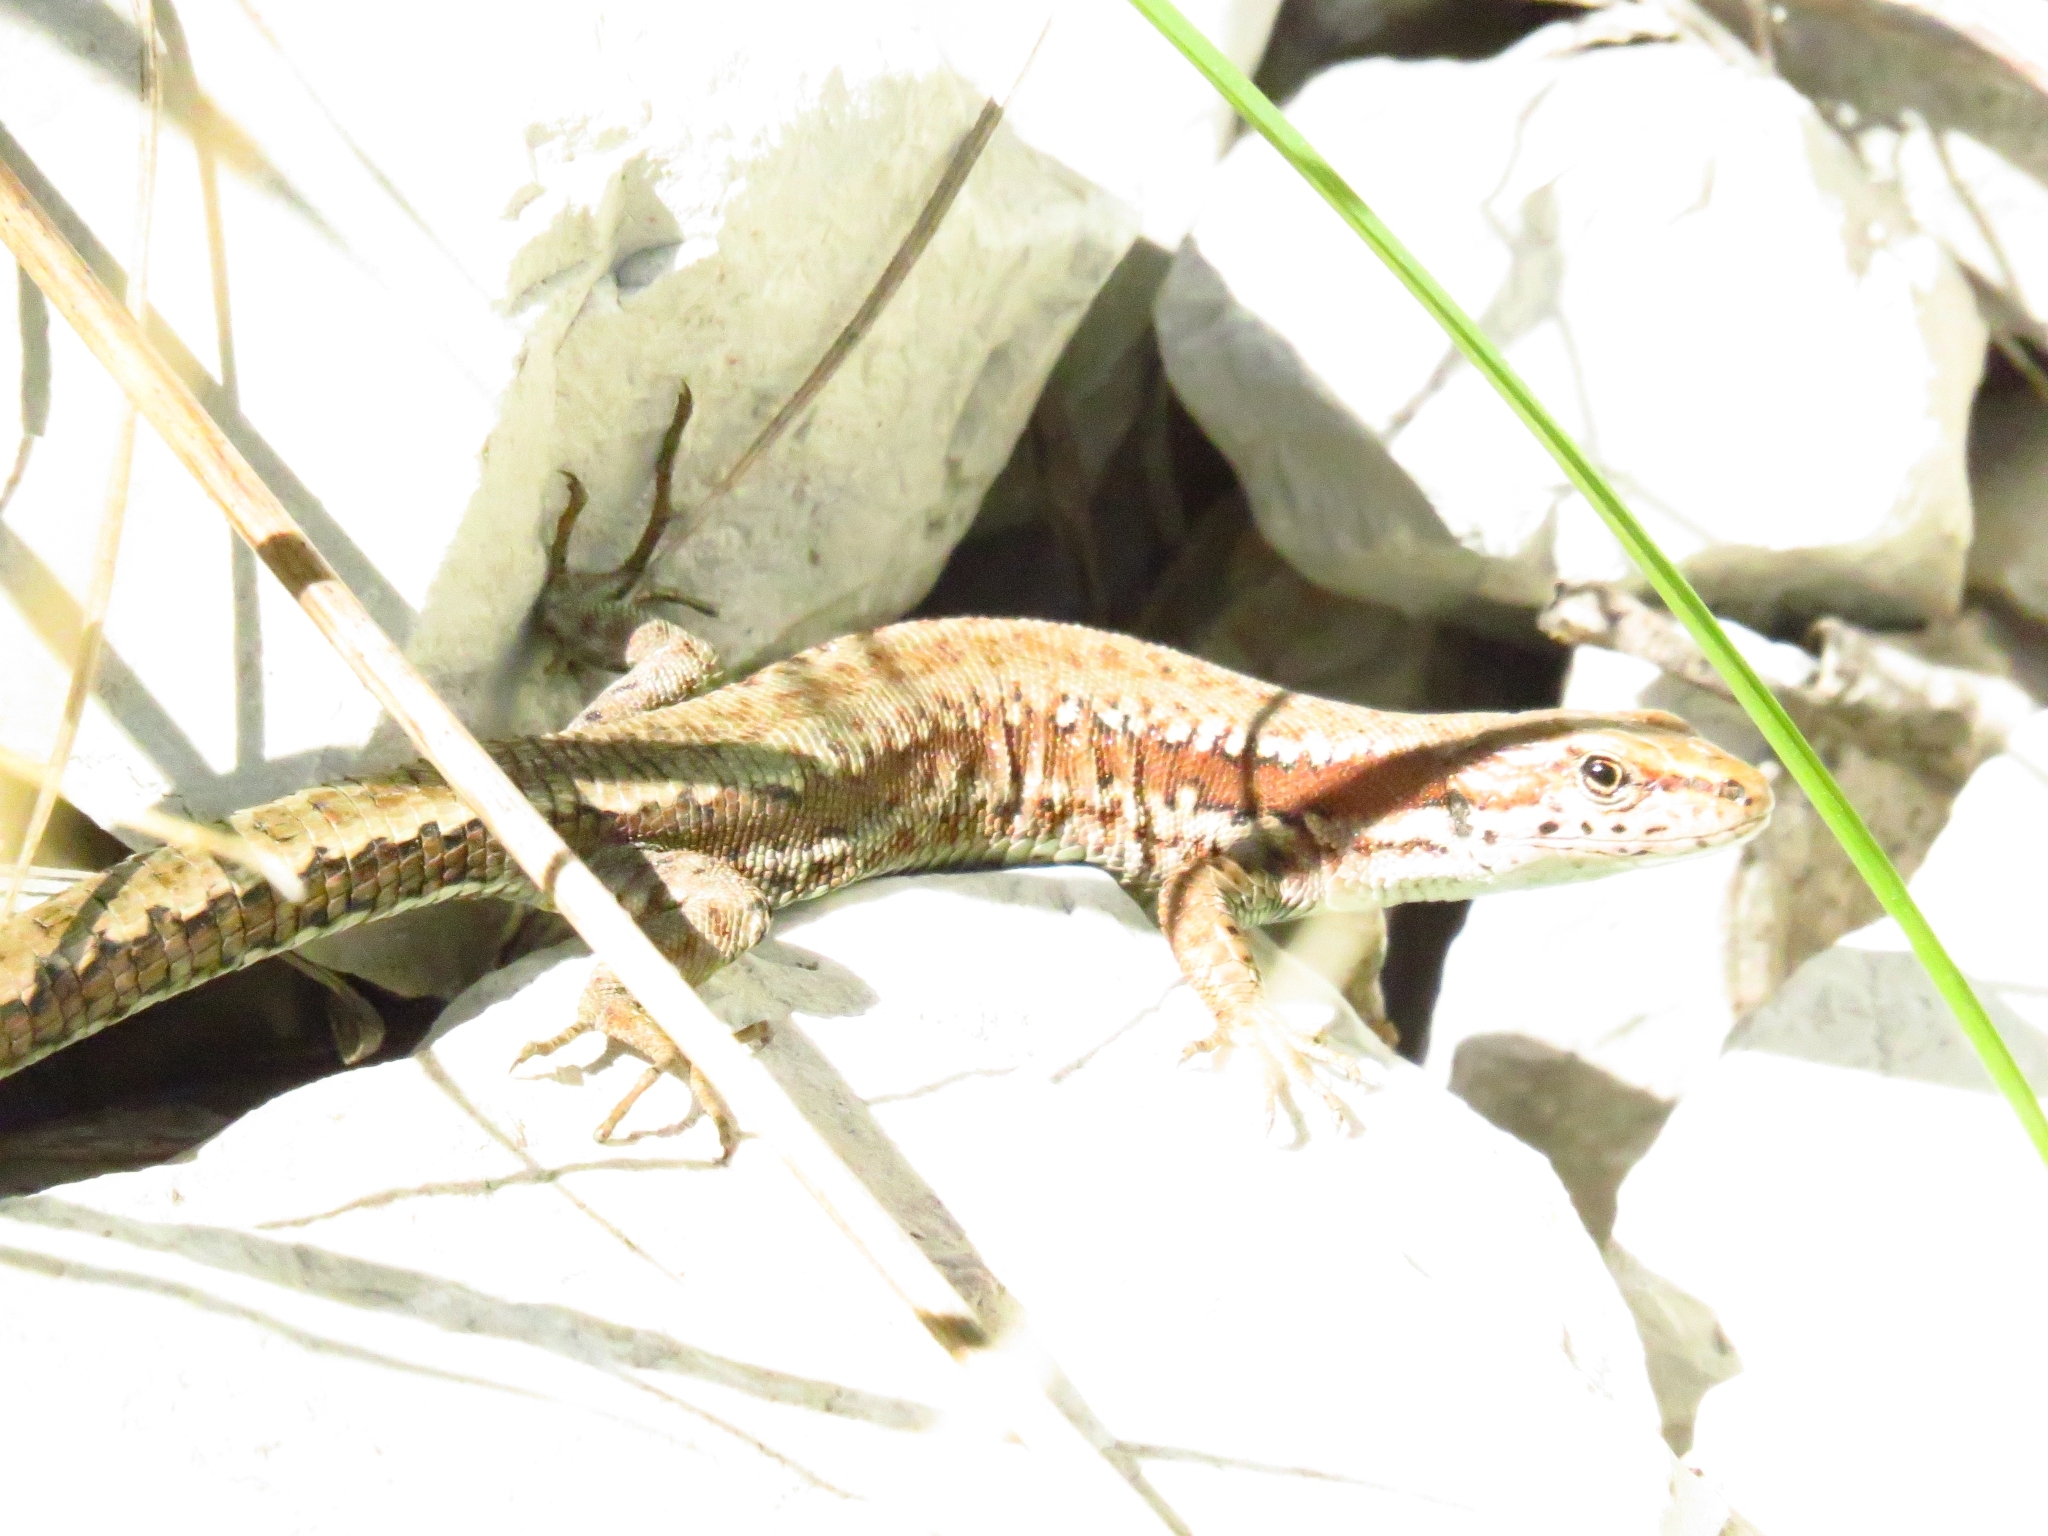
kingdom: Animalia
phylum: Chordata
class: Squamata
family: Lacertidae
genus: Darevskia
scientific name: Darevskia derjugini
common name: Derjugin's lizard
